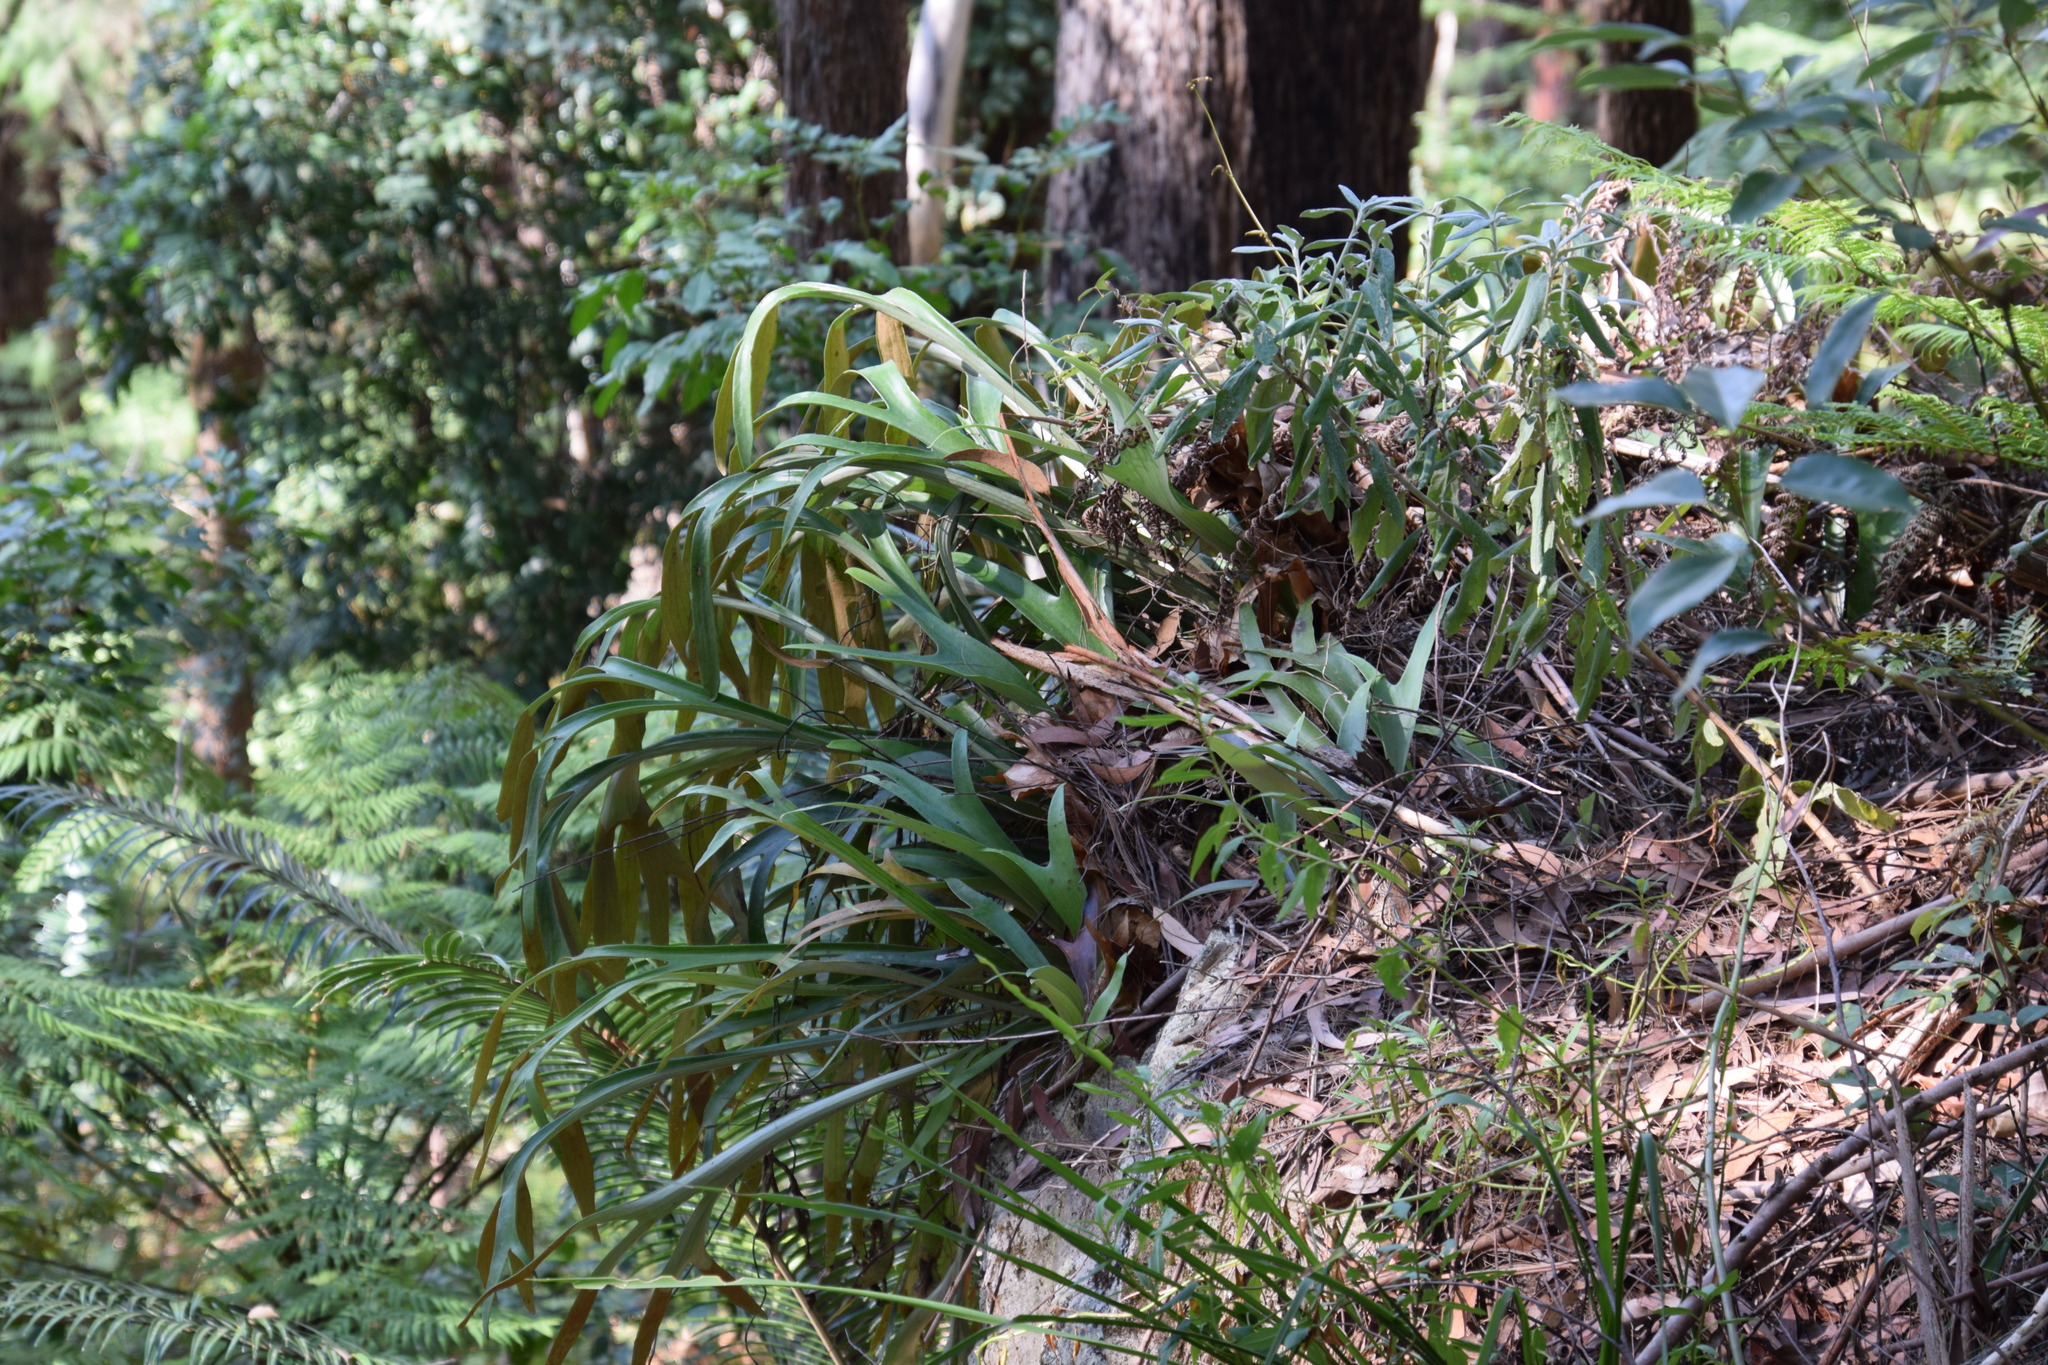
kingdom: Plantae
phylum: Tracheophyta
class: Polypodiopsida
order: Polypodiales
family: Polypodiaceae
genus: Platycerium
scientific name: Platycerium bifurcatum
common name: Elkhorn fern
